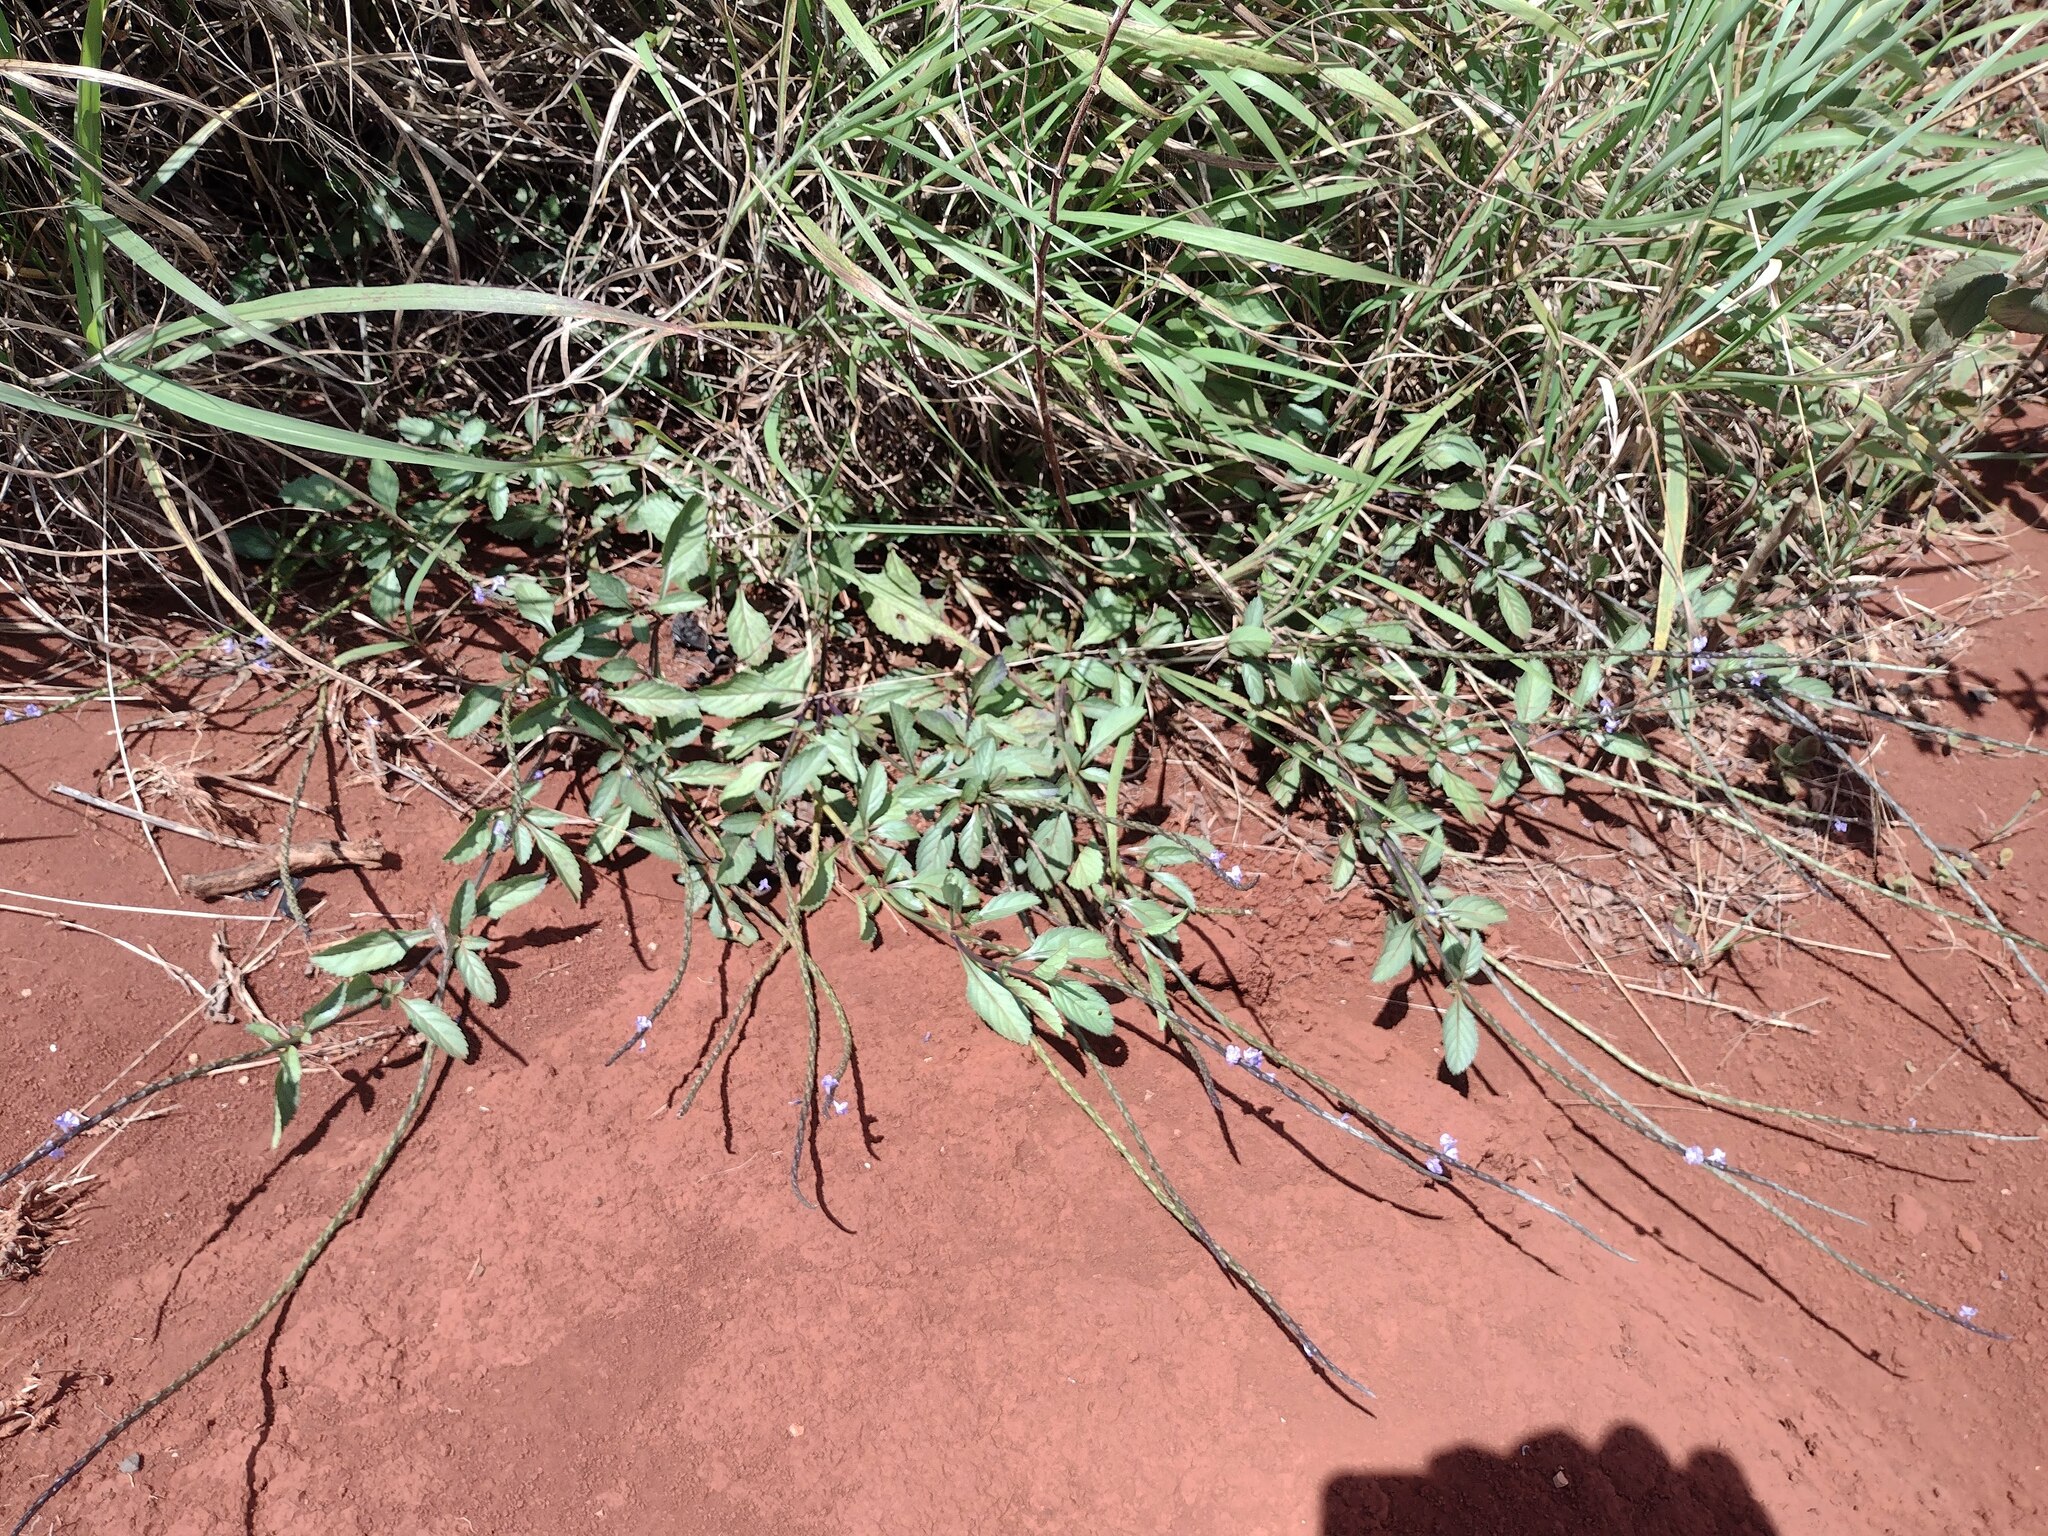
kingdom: Plantae
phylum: Tracheophyta
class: Magnoliopsida
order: Lamiales
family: Verbenaceae
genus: Stachytarpheta
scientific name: Stachytarpheta jamaicensis
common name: Light-blue snakeweed
